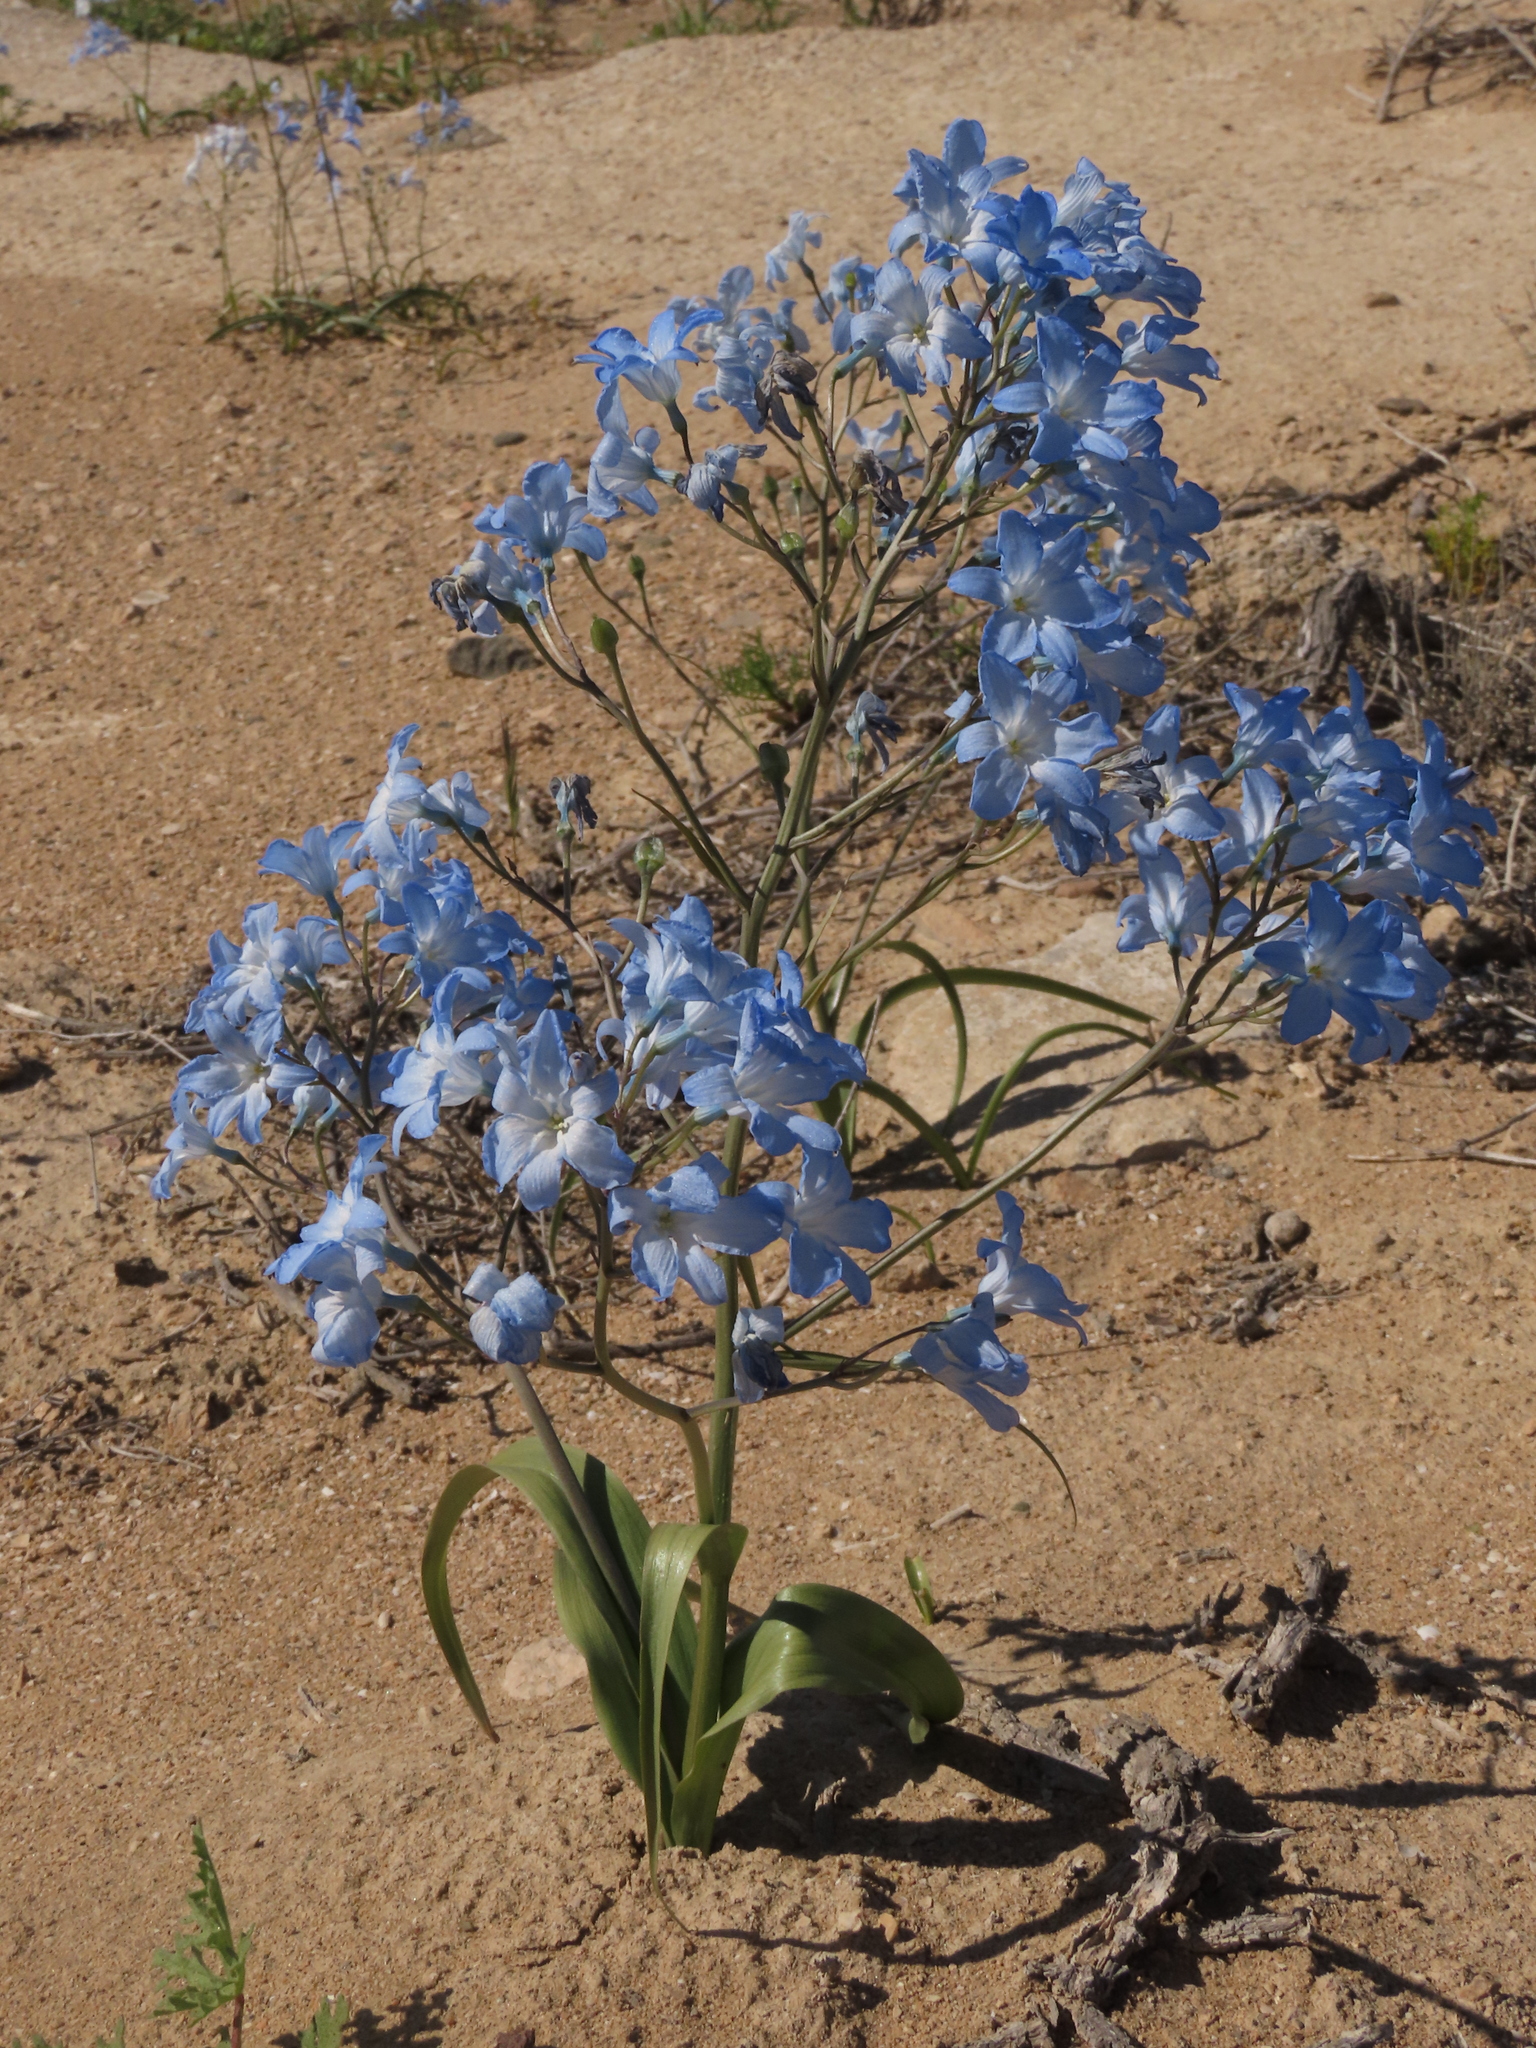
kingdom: Plantae
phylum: Tracheophyta
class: Liliopsida
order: Asparagales
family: Tecophilaeaceae
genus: Zephyra
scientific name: Zephyra elegans
